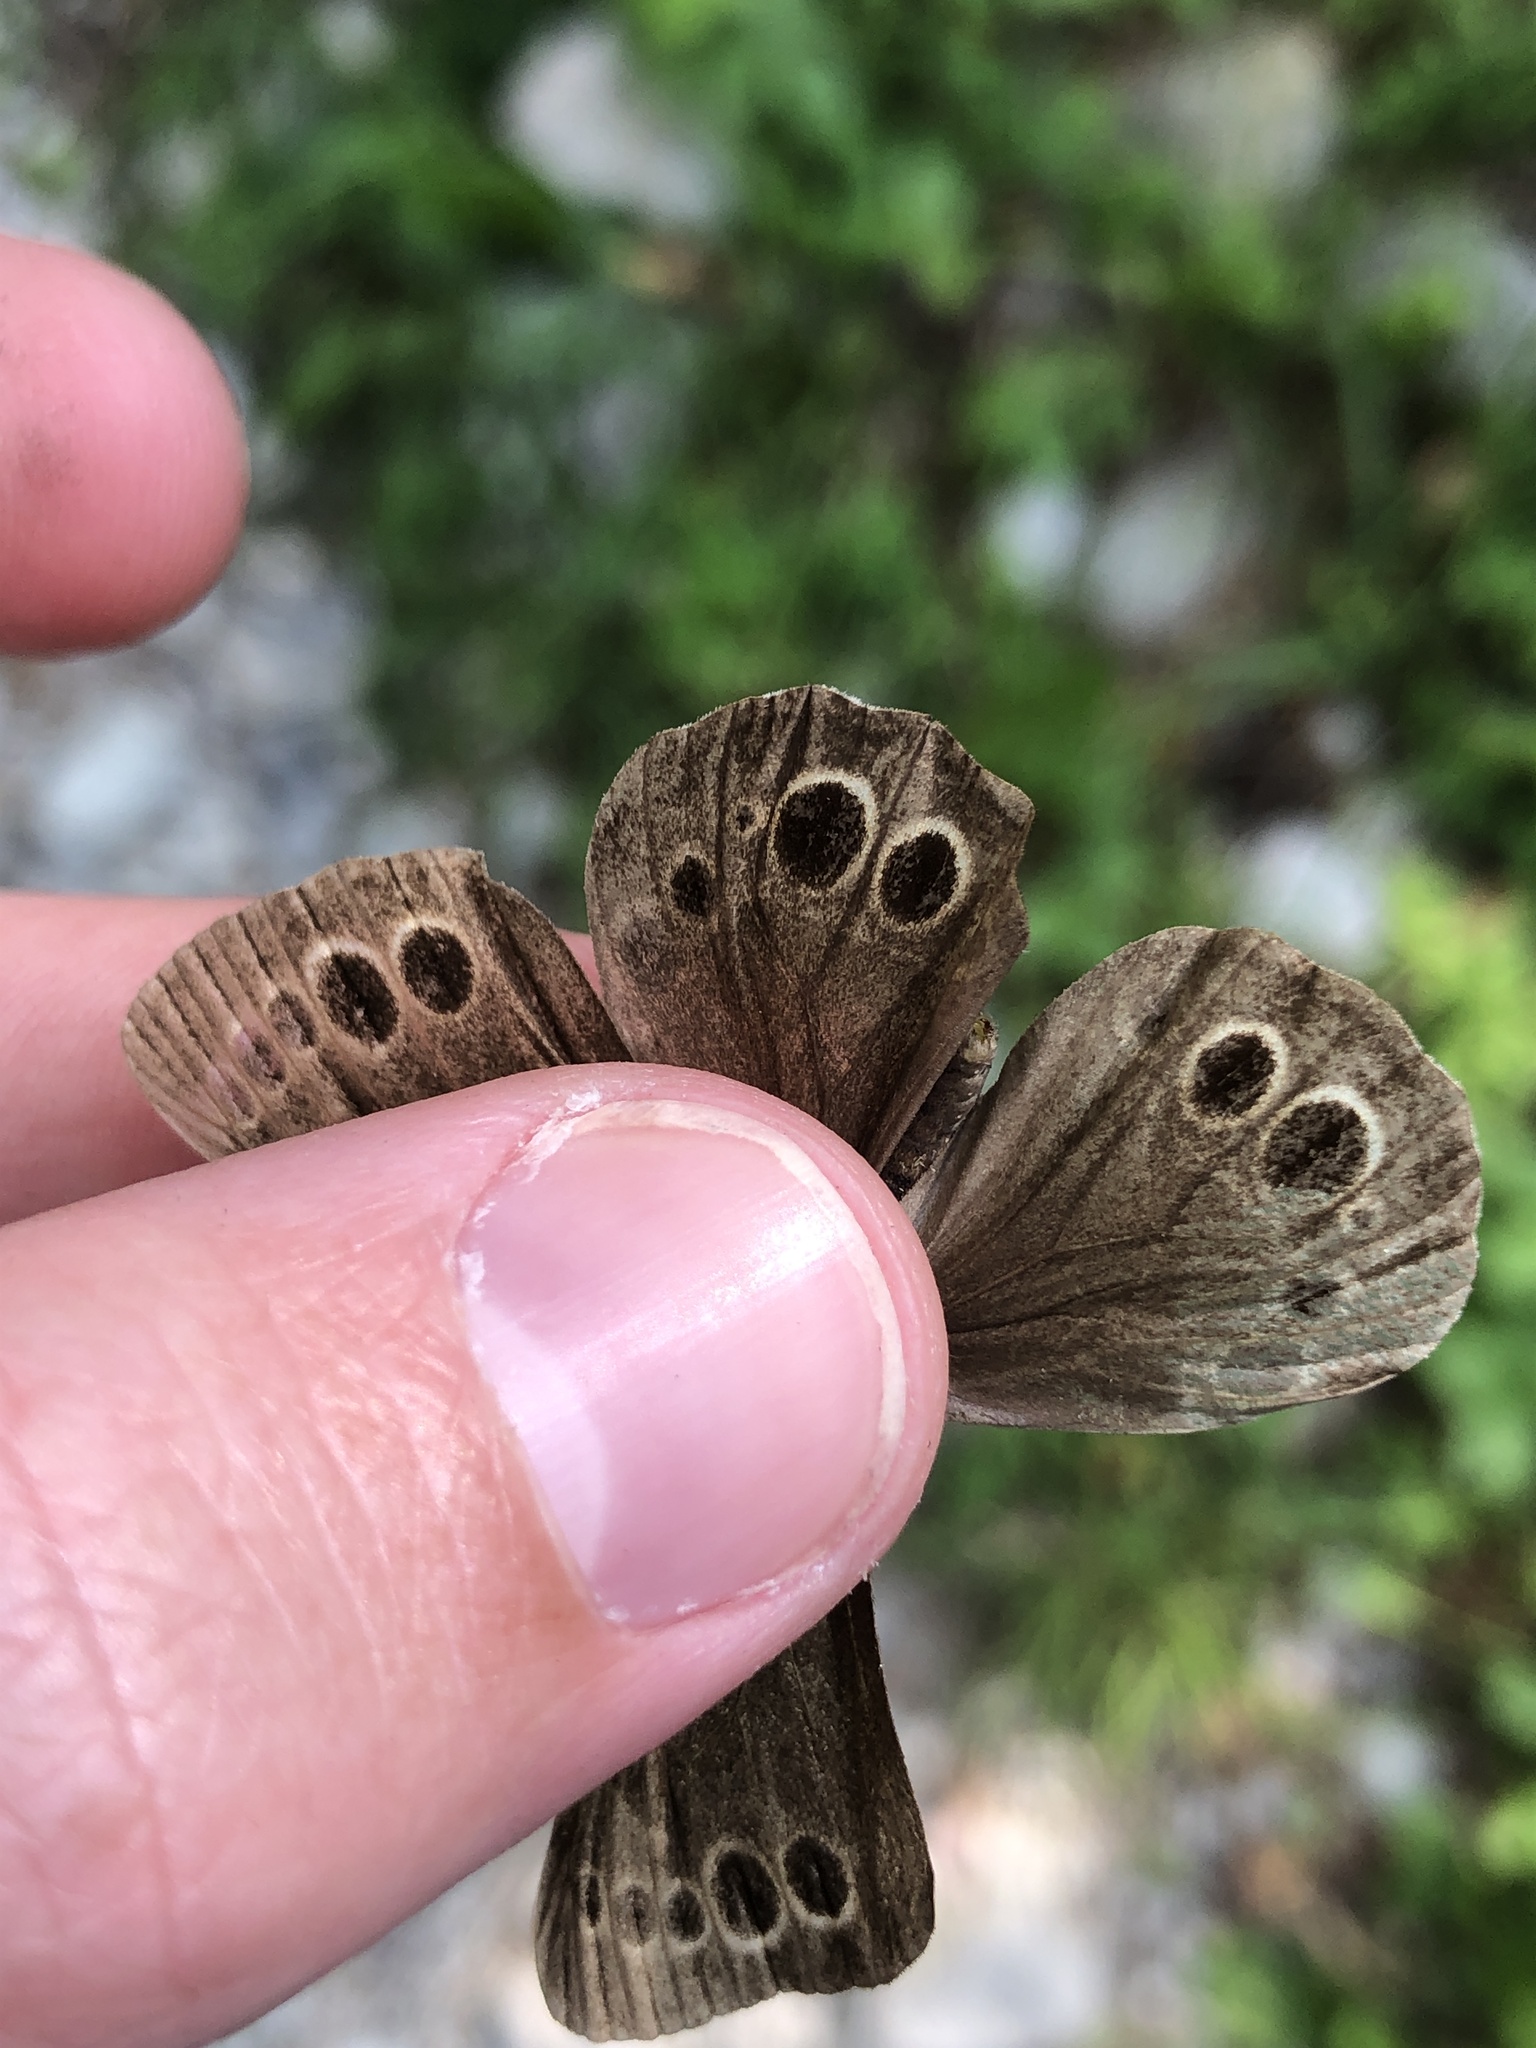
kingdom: Animalia
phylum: Arthropoda
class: Insecta
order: Lepidoptera
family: Nymphalidae
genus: Pararge
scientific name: Pararge Lopinga achine
